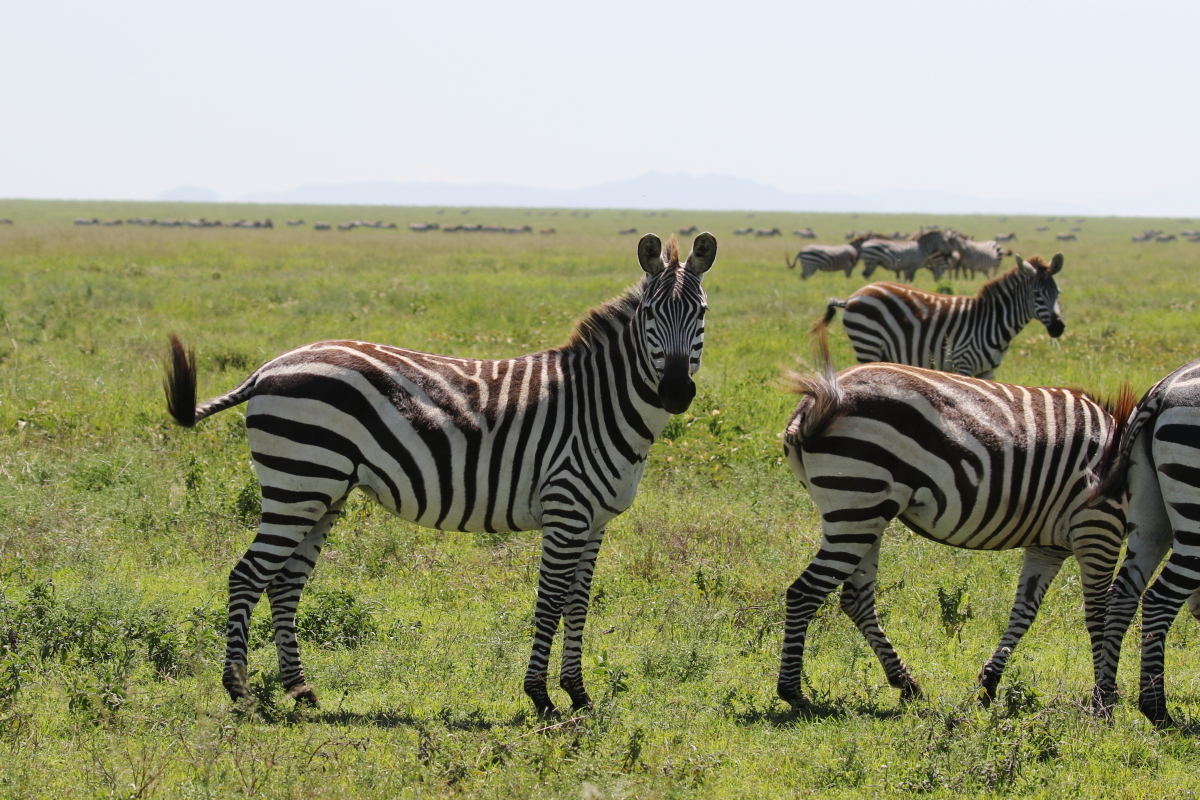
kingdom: Animalia
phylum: Chordata
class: Mammalia
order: Perissodactyla
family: Equidae
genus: Equus
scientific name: Equus quagga
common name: Plains zebra
